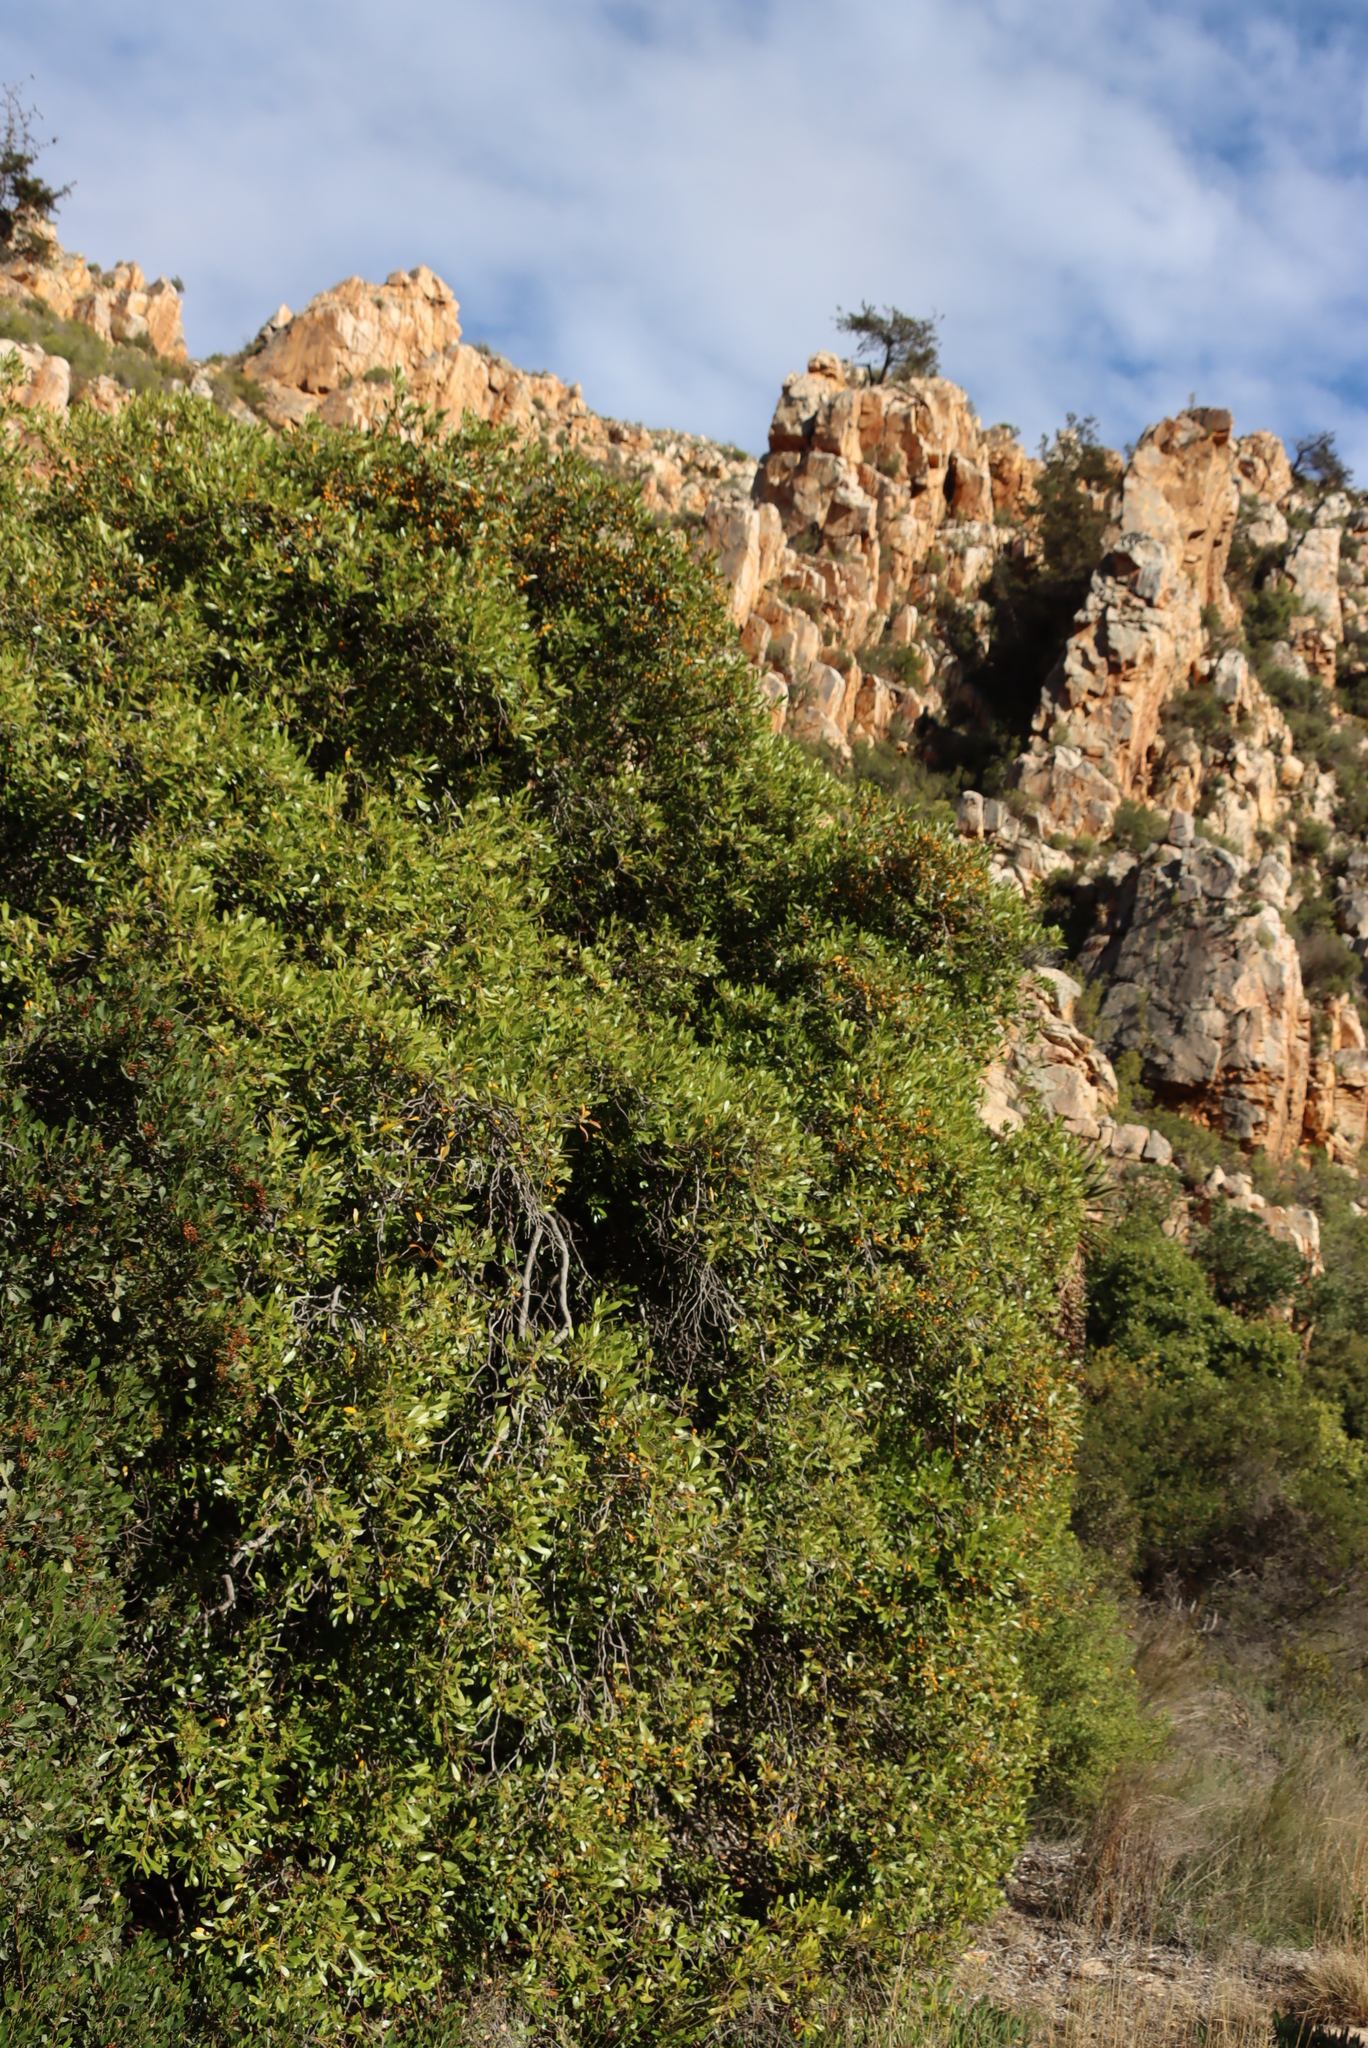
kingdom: Plantae
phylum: Tracheophyta
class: Magnoliopsida
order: Celastrales
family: Celastraceae
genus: Pterocelastrus
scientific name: Pterocelastrus tricuspidatus
